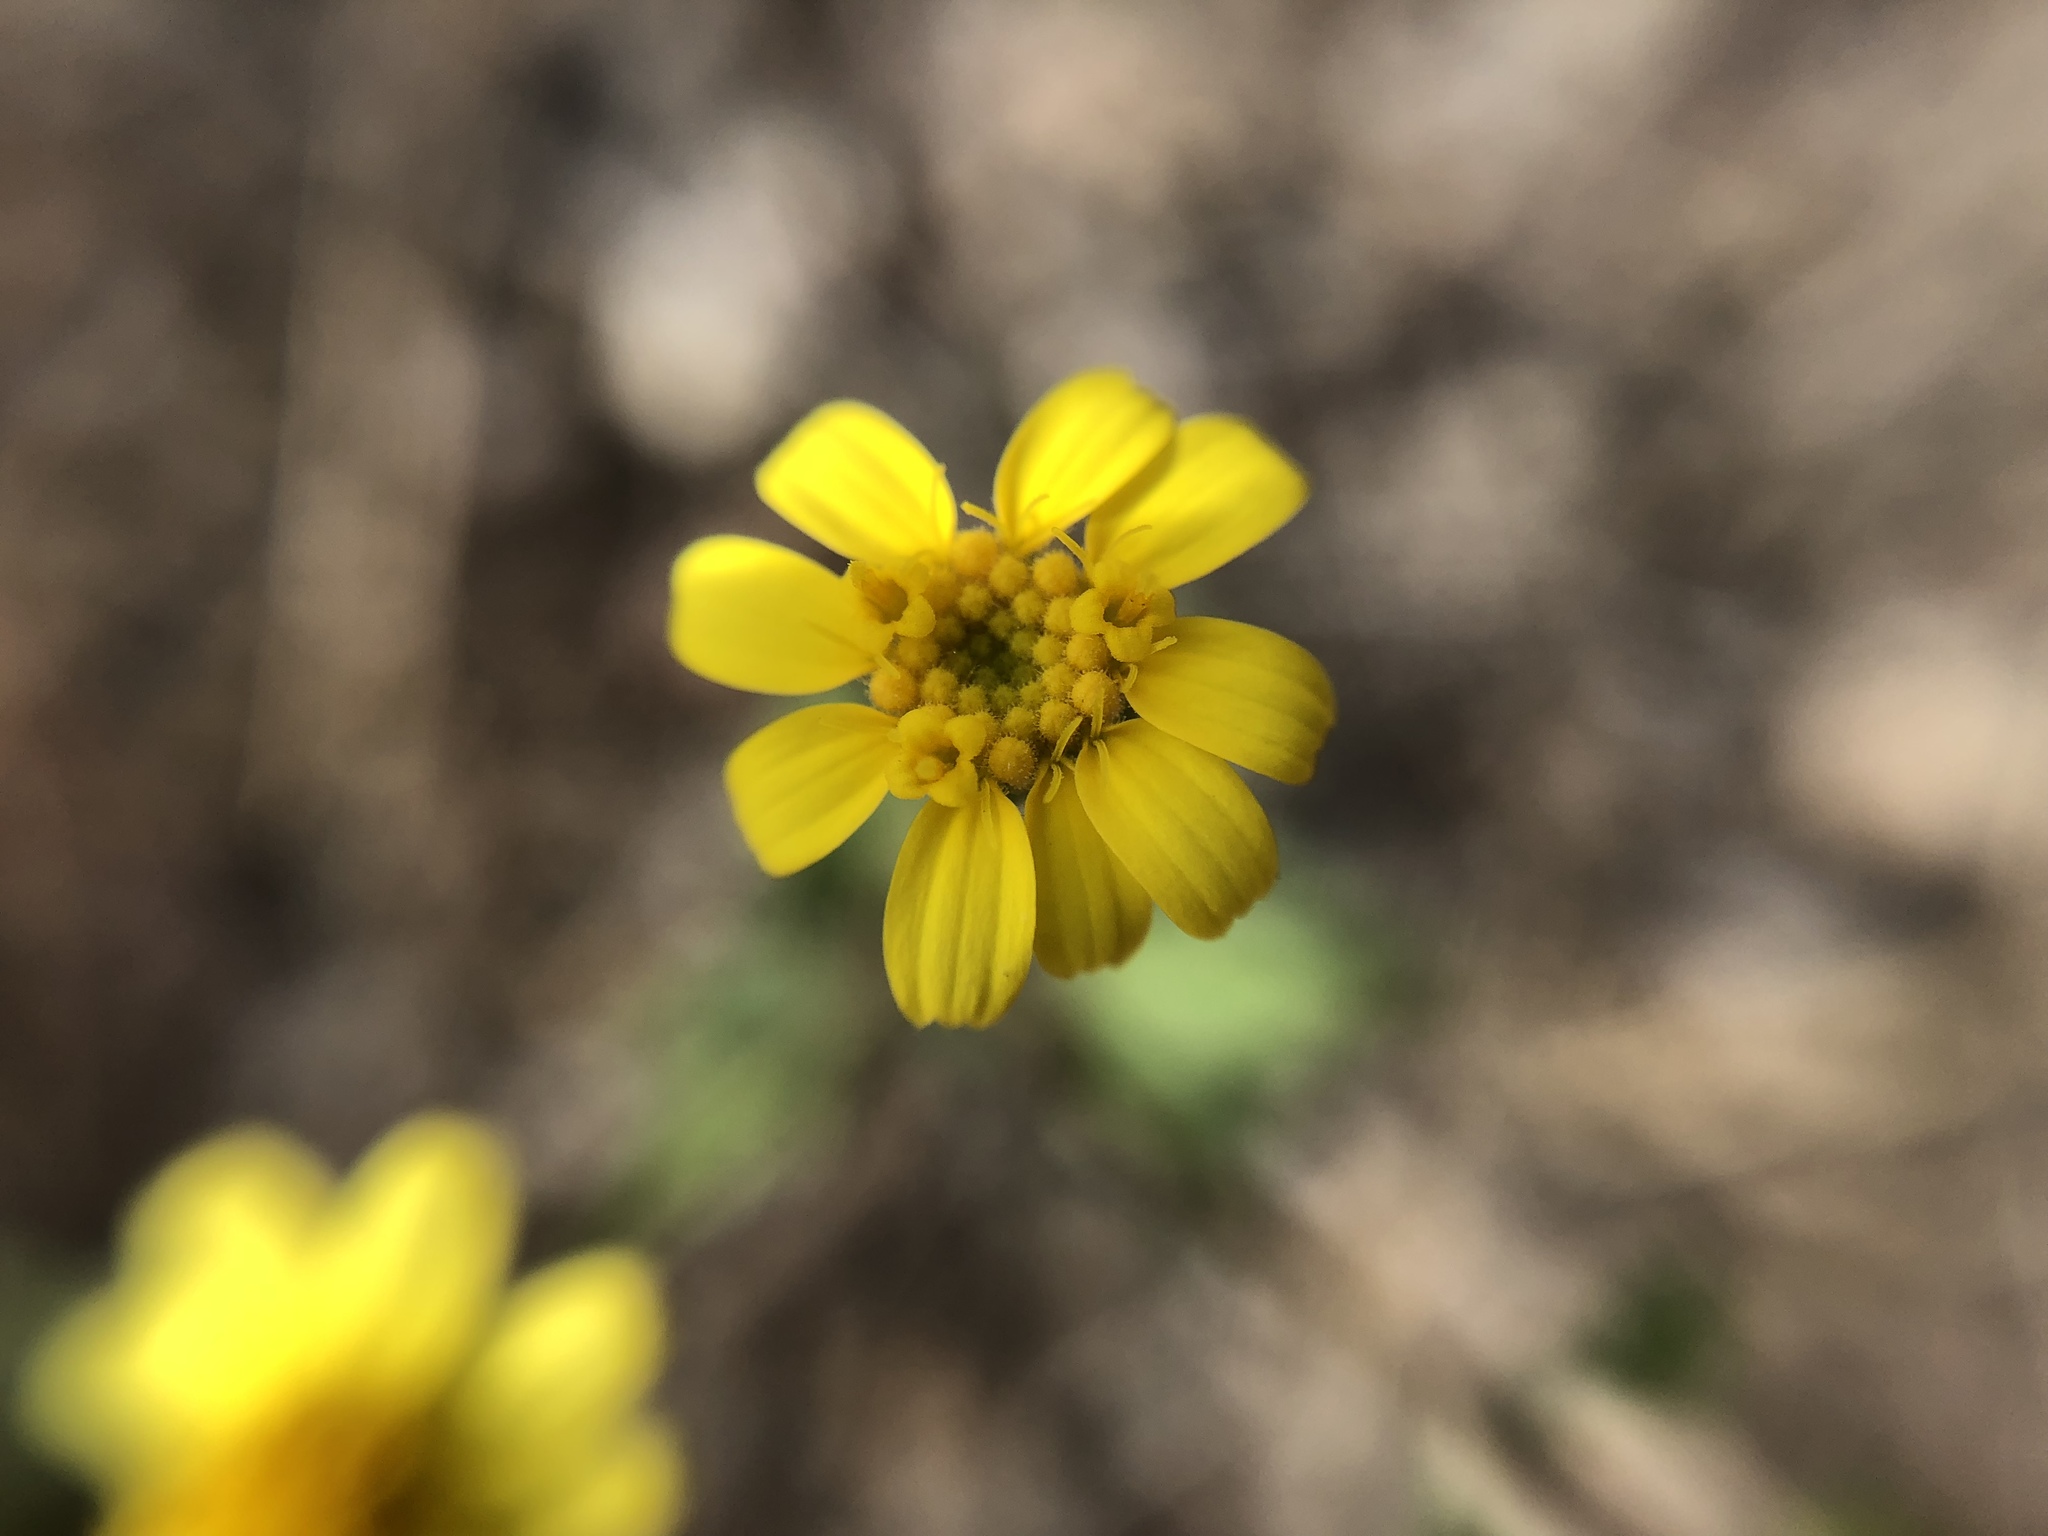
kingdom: Plantae
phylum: Tracheophyta
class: Magnoliopsida
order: Asterales
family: Asteraceae
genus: Perityle
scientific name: Perityle californica
